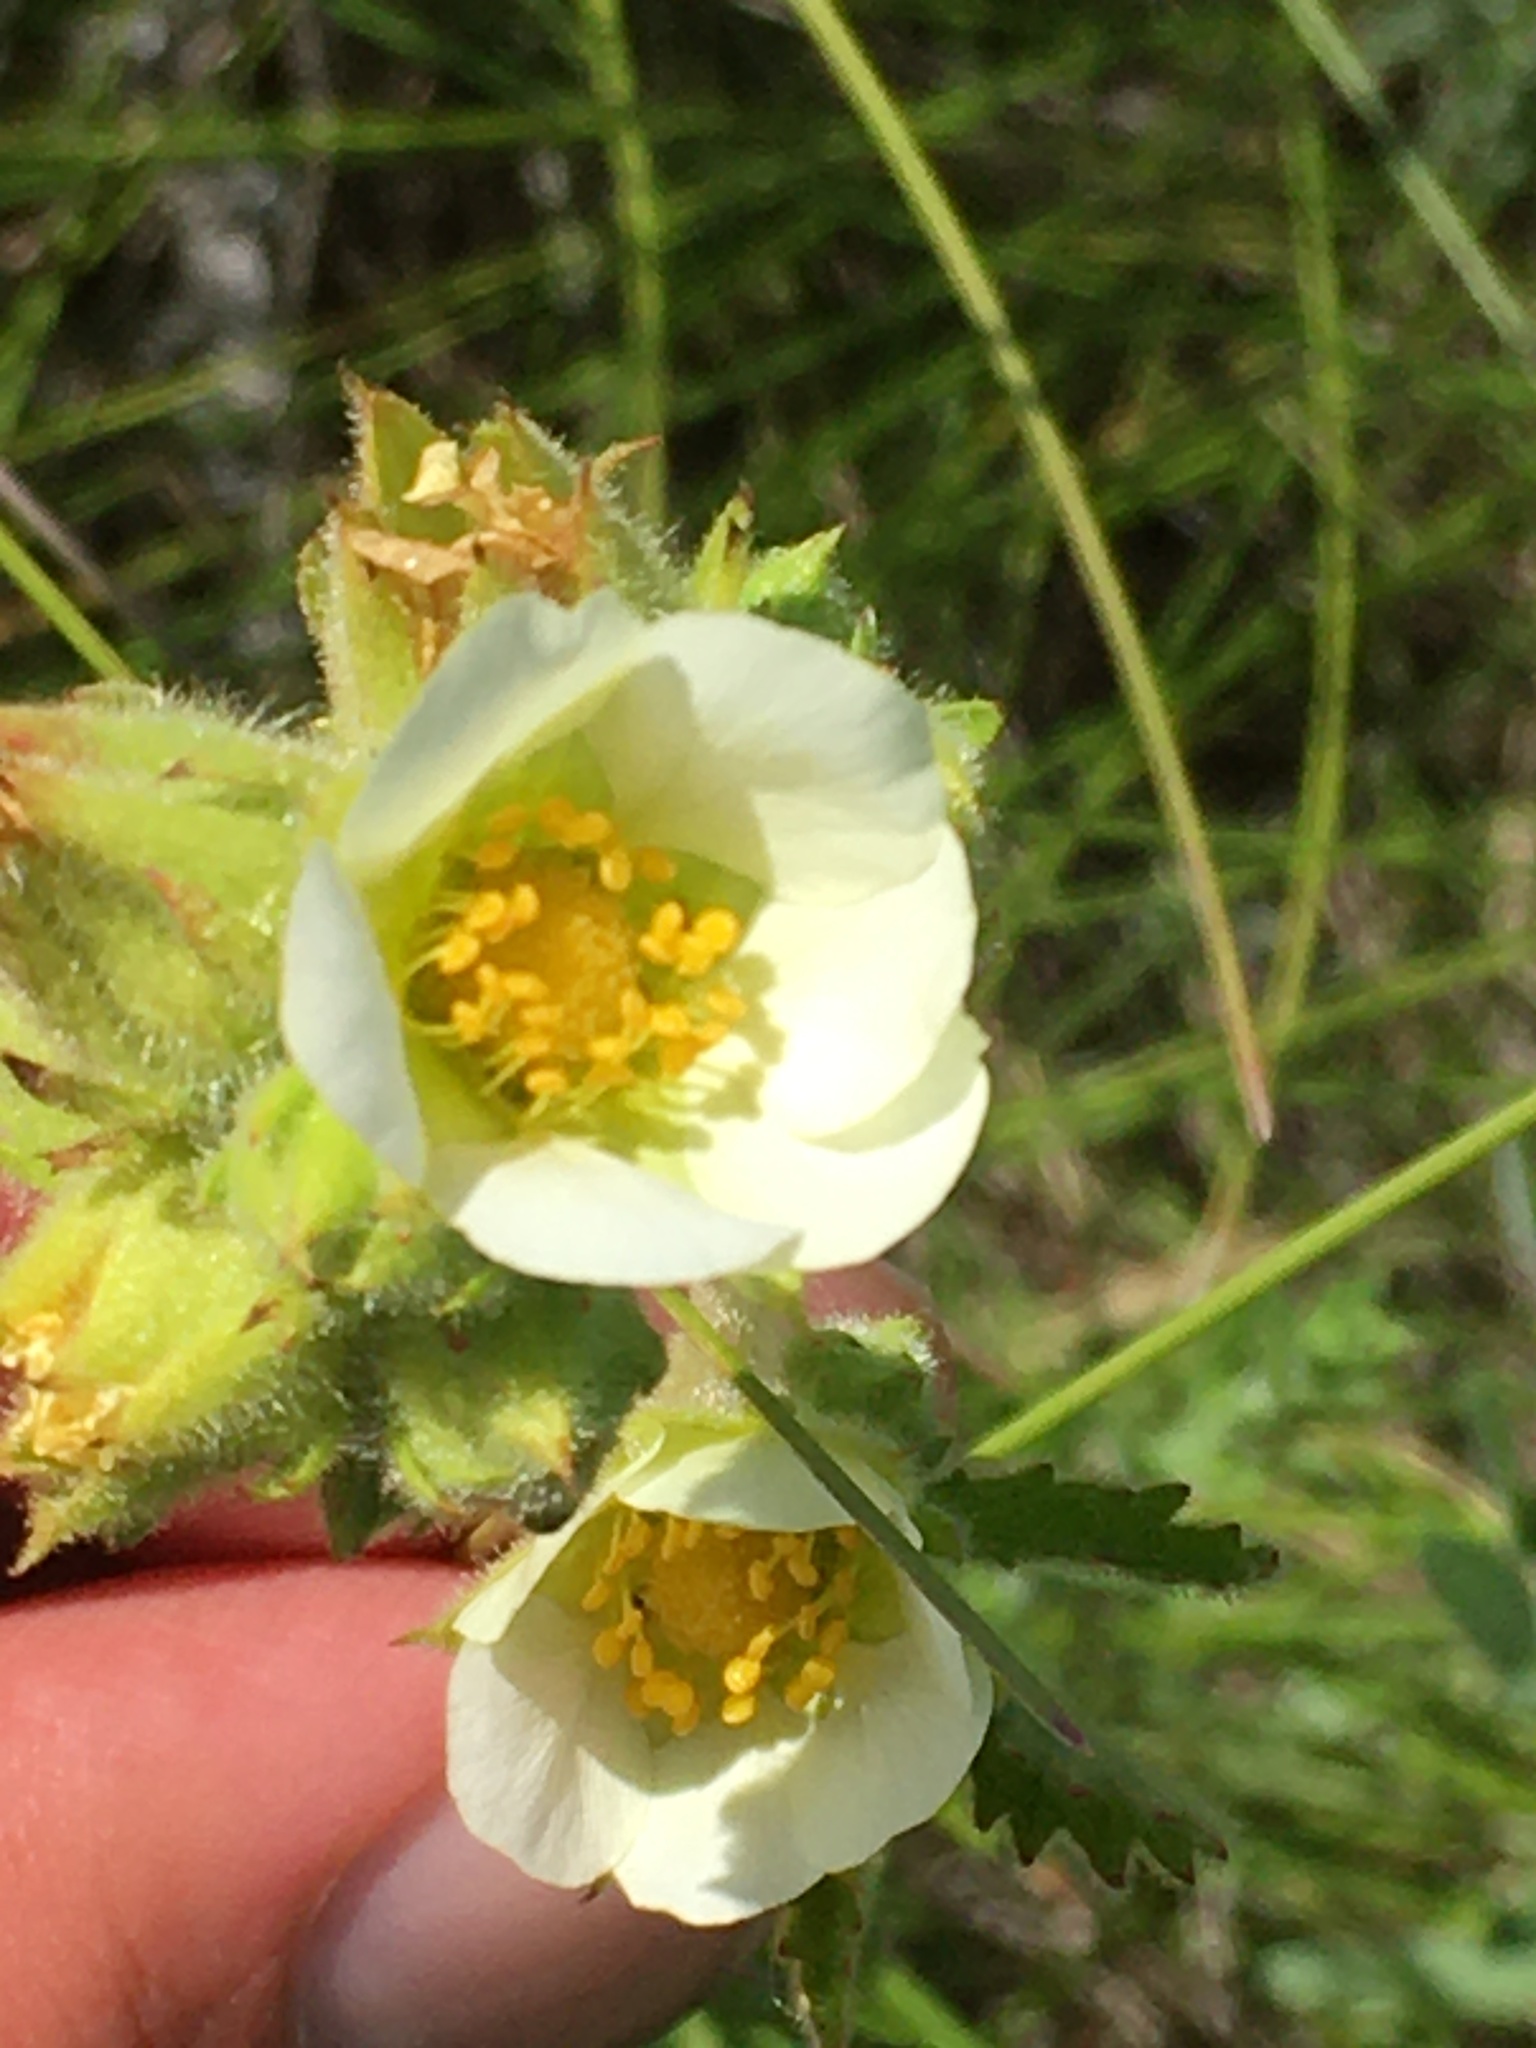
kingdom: Plantae
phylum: Tracheophyta
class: Magnoliopsida
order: Rosales
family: Rosaceae
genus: Drymocallis
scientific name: Drymocallis arguta
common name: Tall cinquefoil
